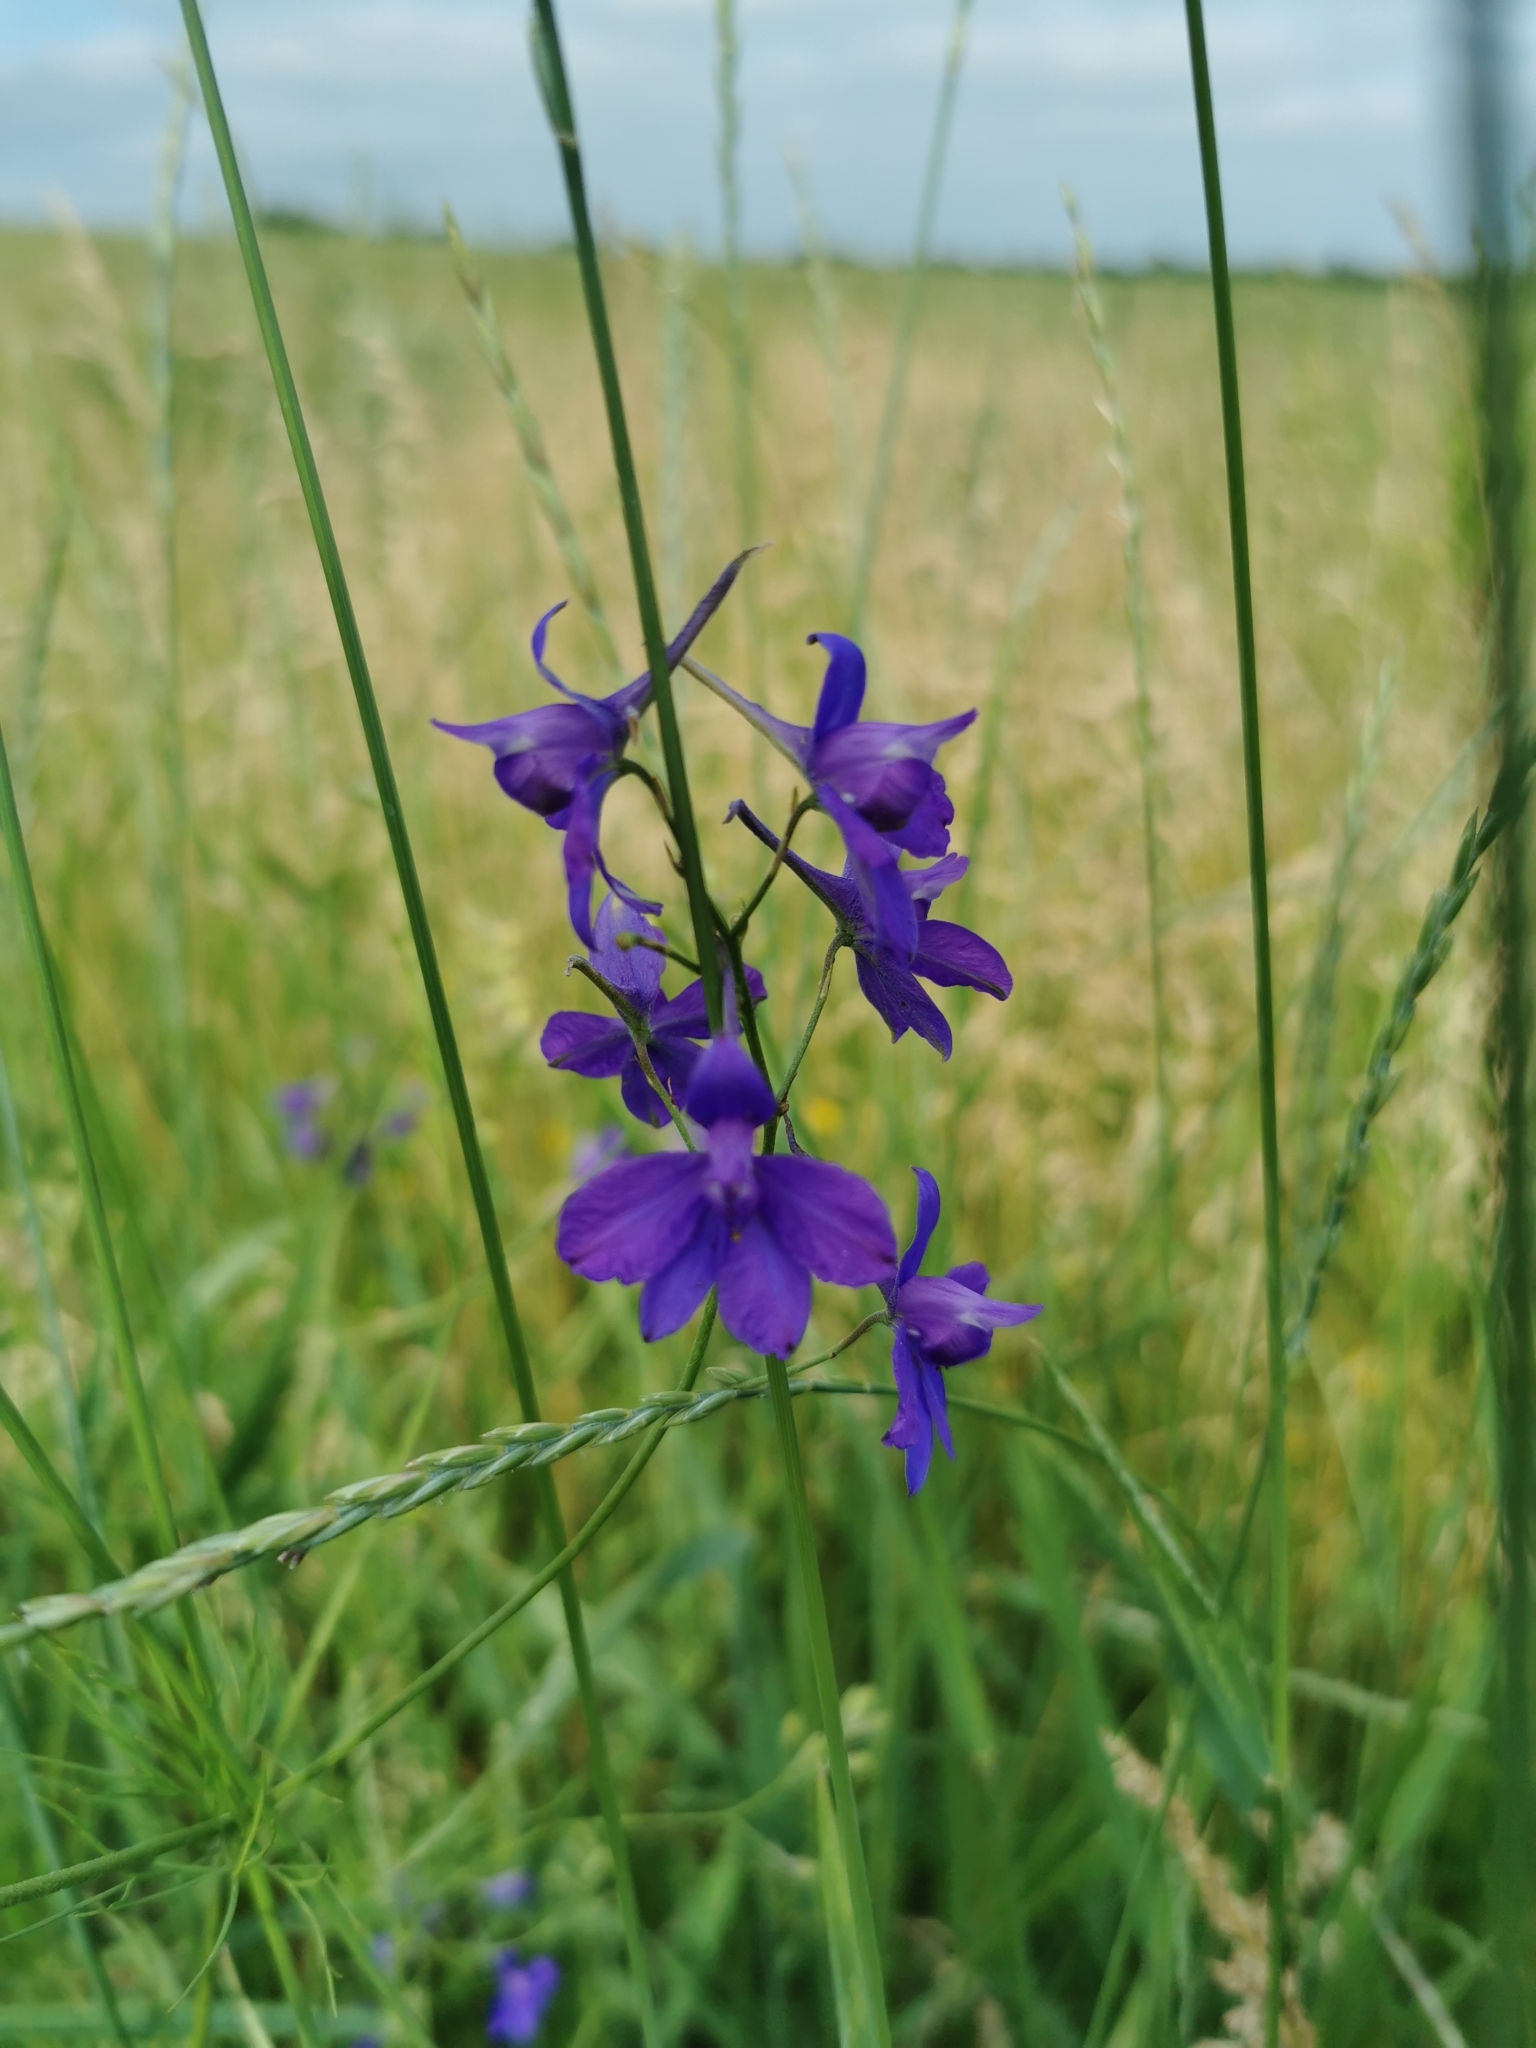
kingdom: Plantae
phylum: Tracheophyta
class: Magnoliopsida
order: Ranunculales
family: Ranunculaceae
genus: Delphinium
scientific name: Delphinium consolida
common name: Branching larkspur
